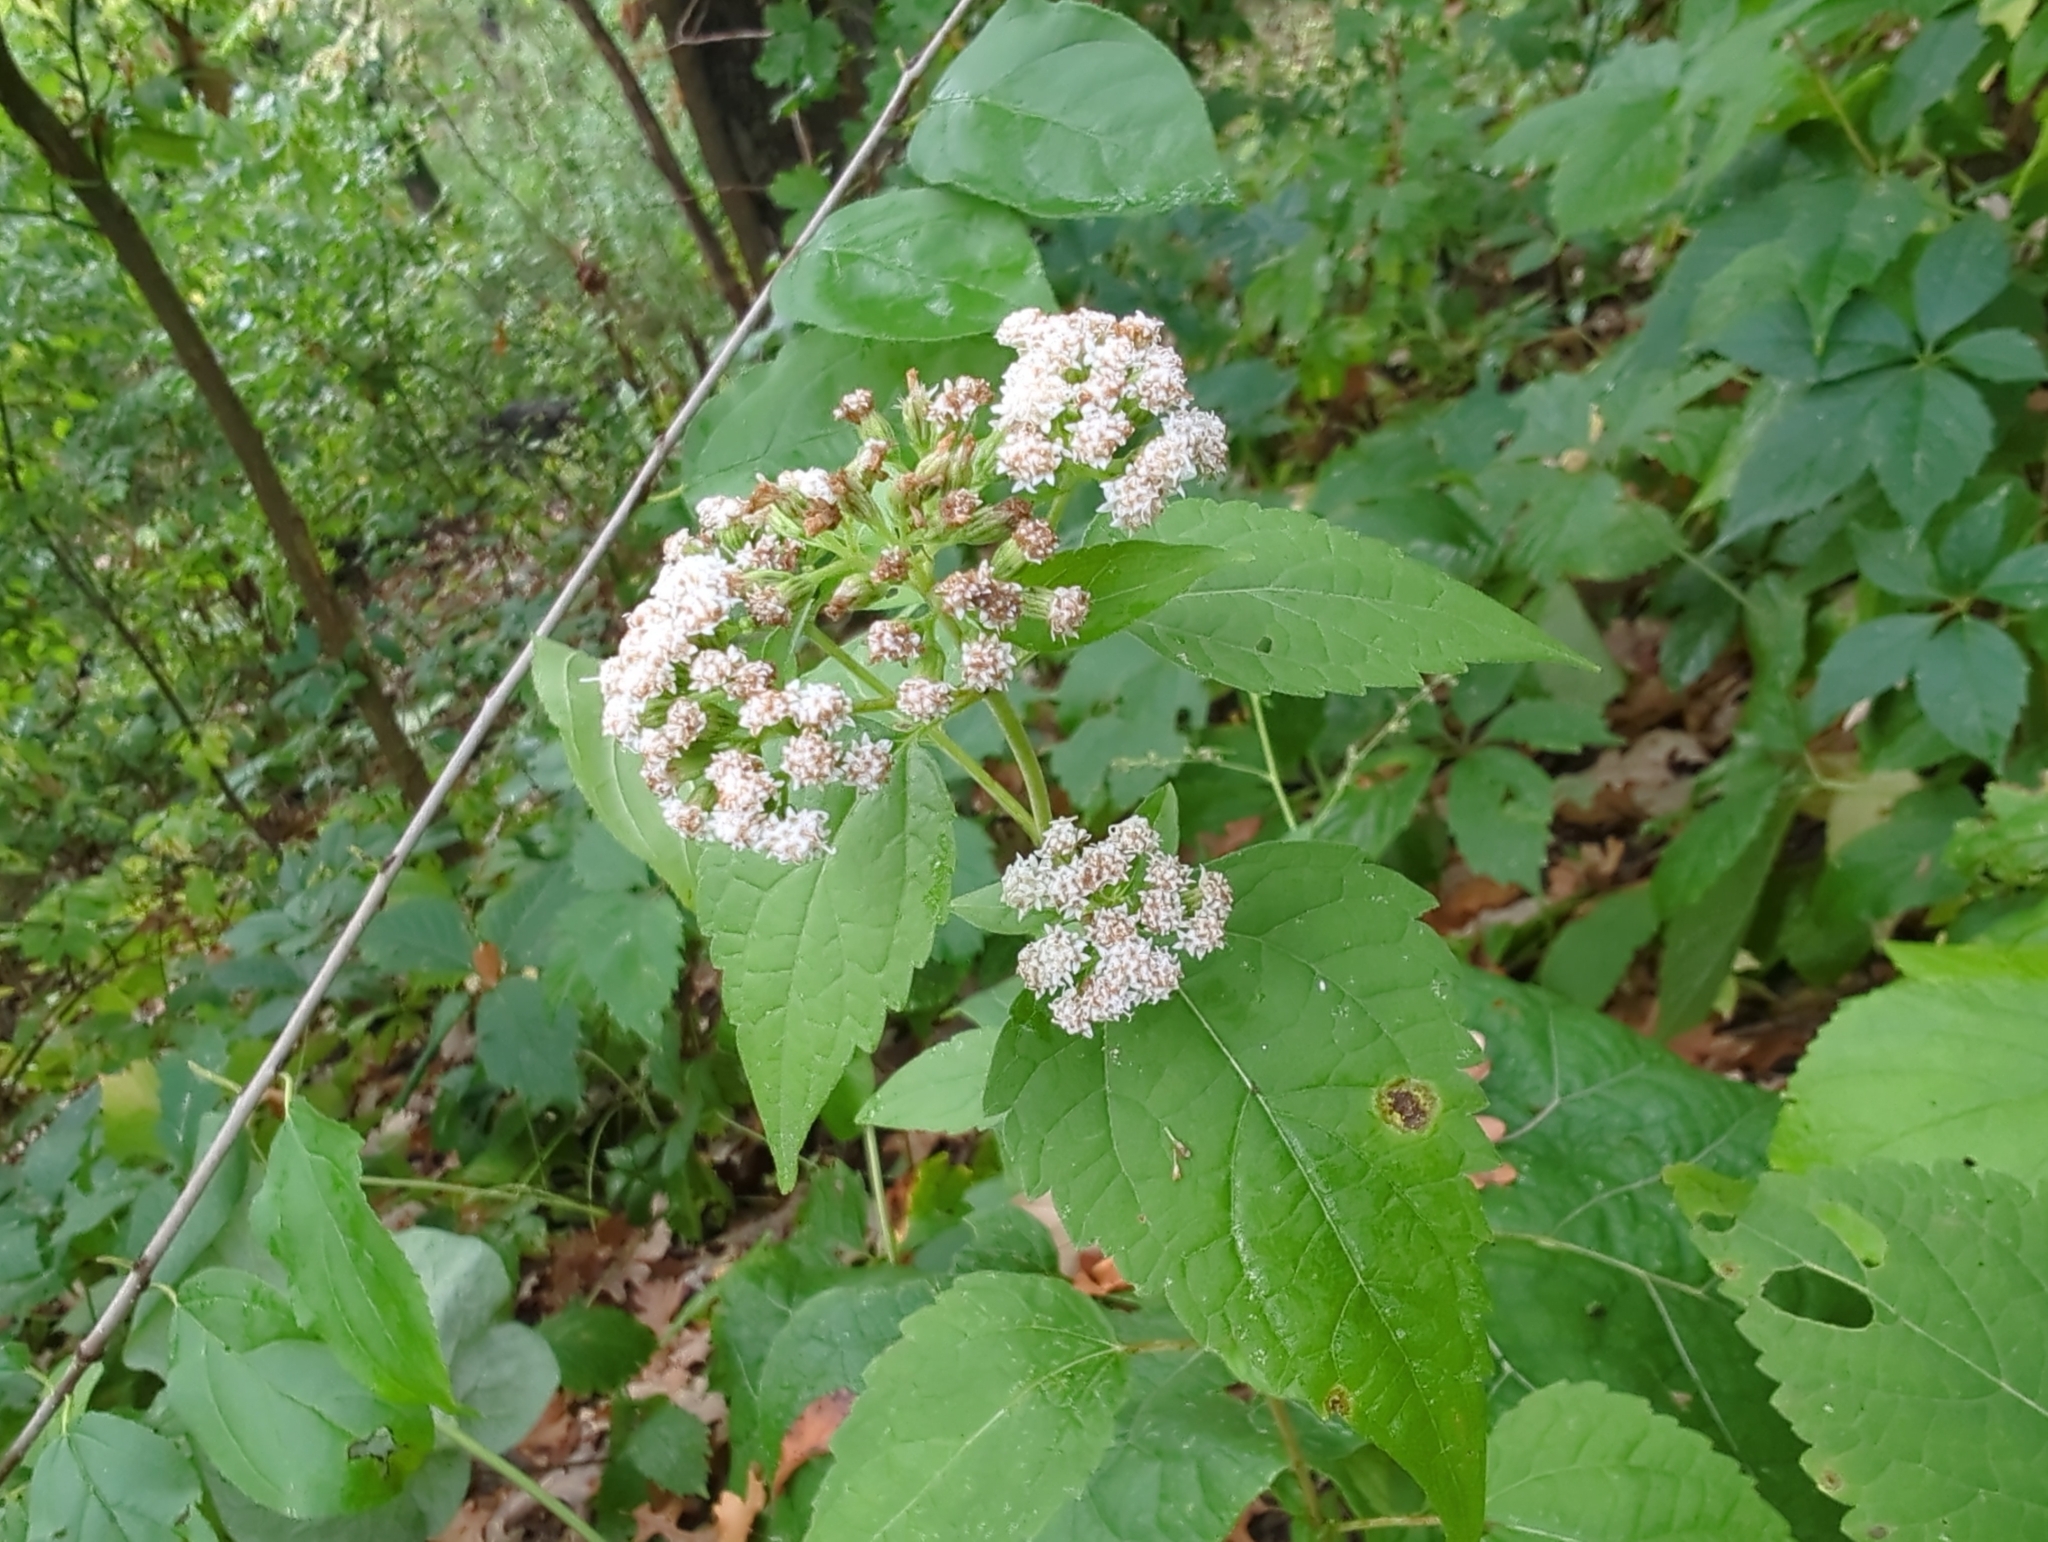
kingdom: Plantae
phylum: Tracheophyta
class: Magnoliopsida
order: Asterales
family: Asteraceae
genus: Ageratina
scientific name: Ageratina altissima
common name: White snakeroot
